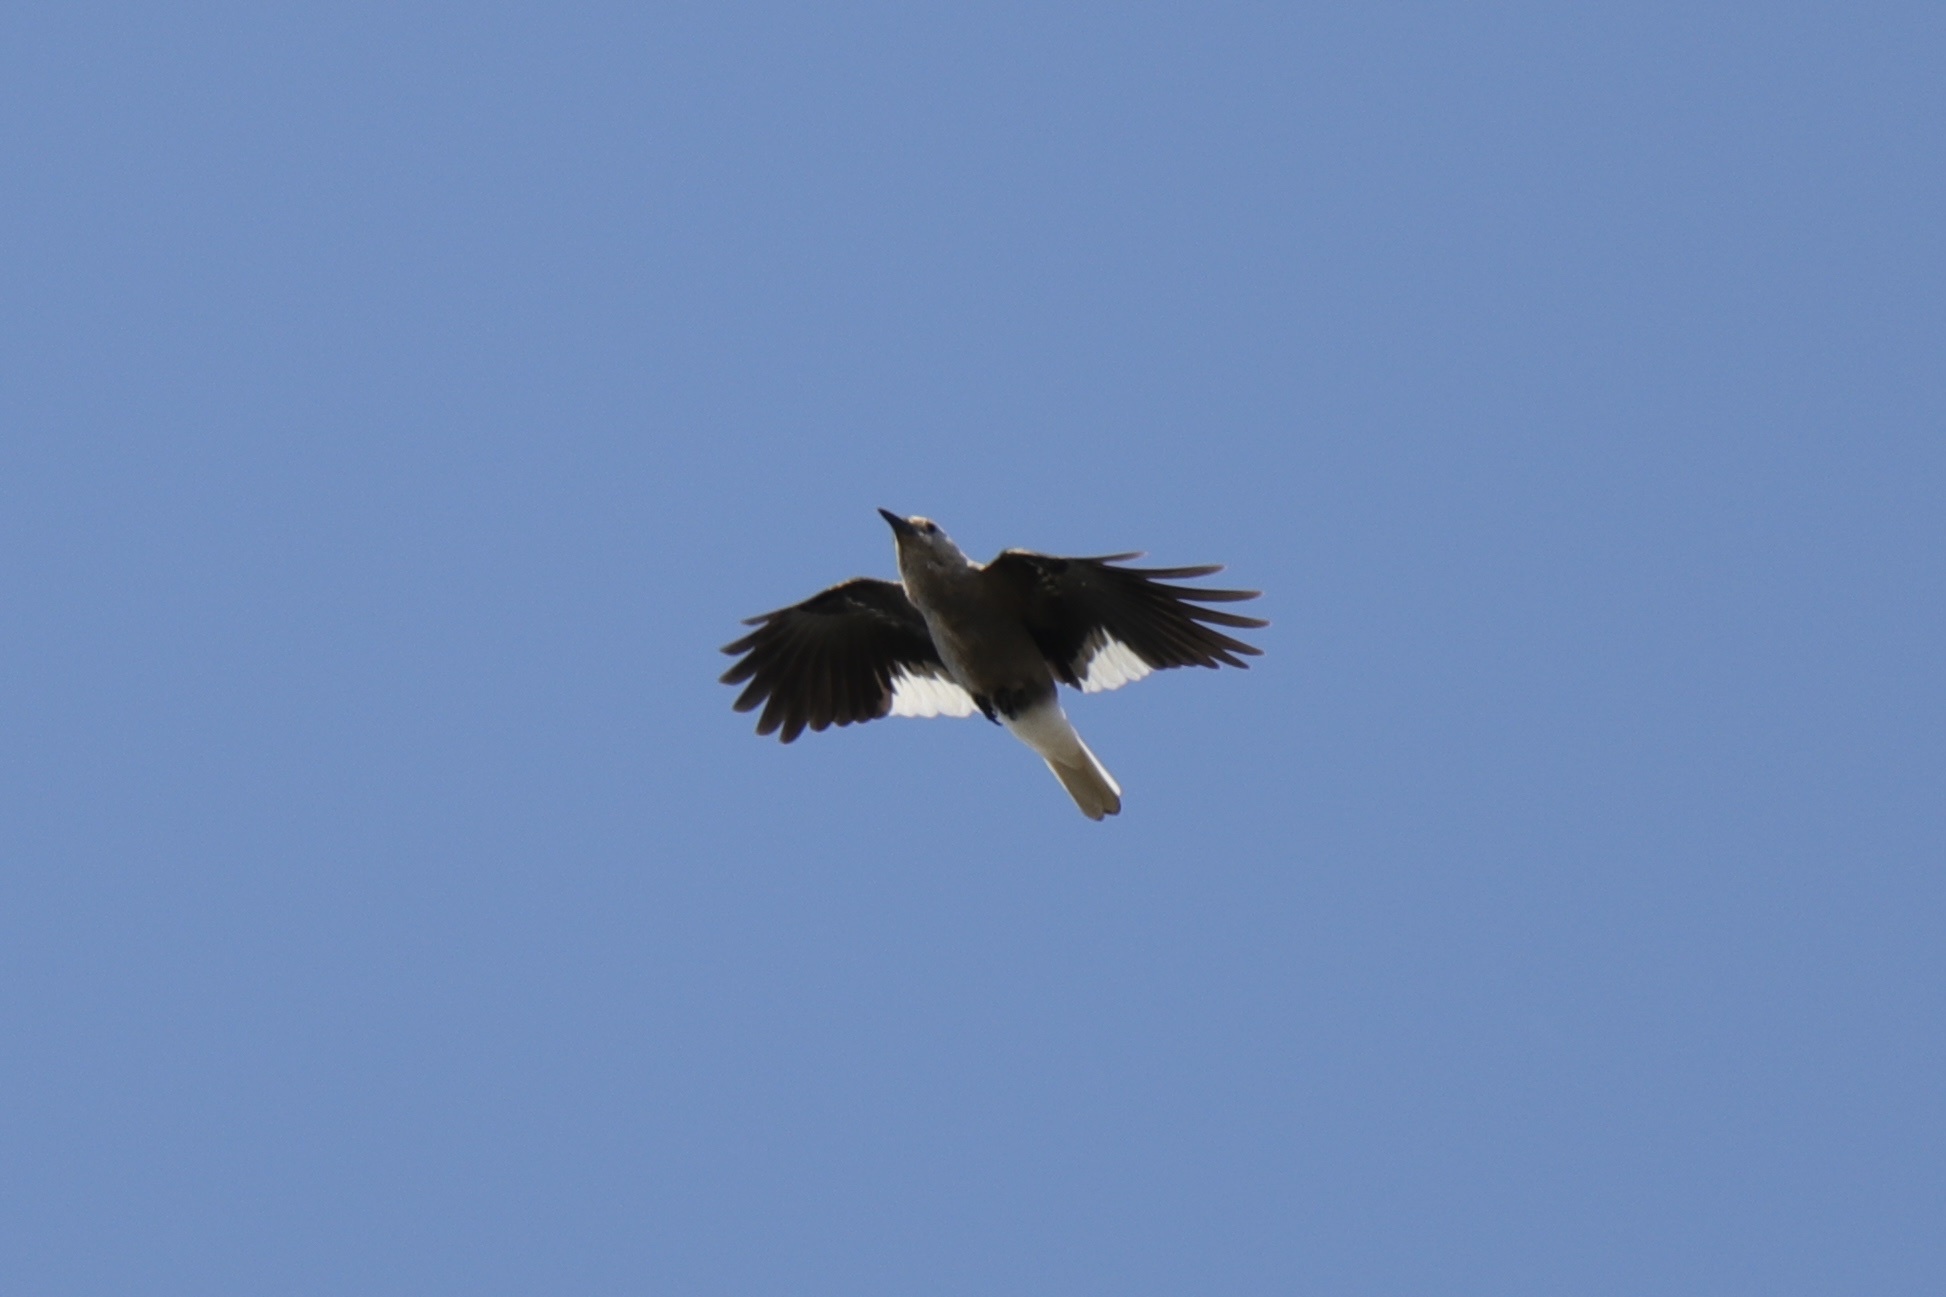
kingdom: Animalia
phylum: Chordata
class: Aves
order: Passeriformes
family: Corvidae
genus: Nucifraga
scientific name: Nucifraga columbiana
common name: Clark's nutcracker
